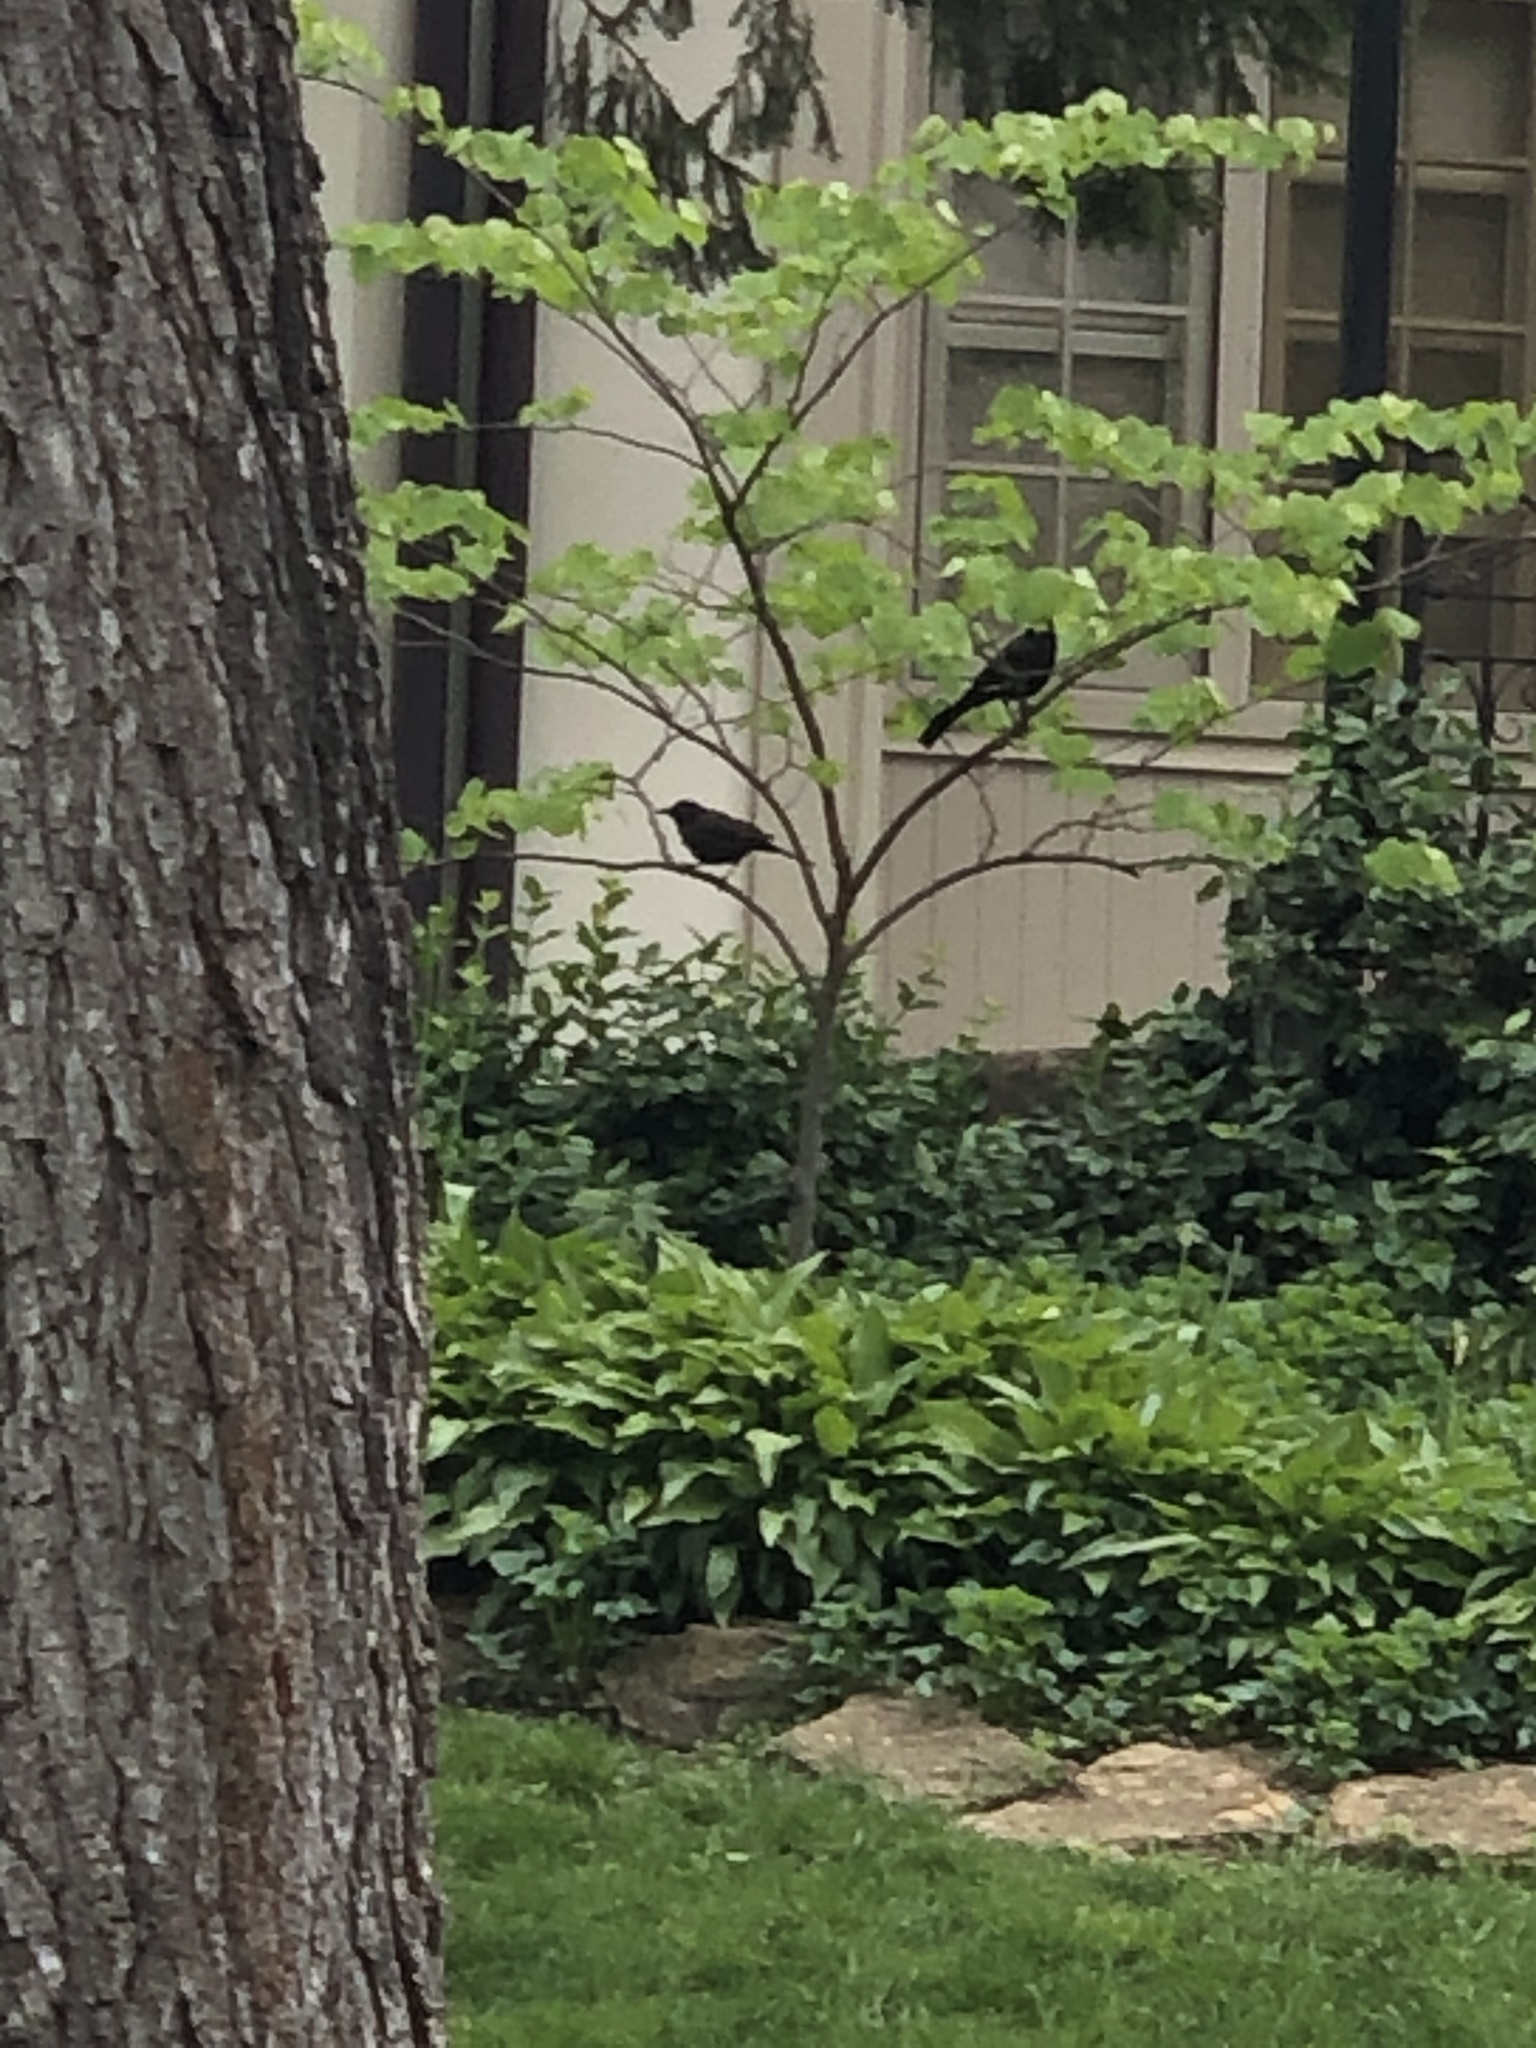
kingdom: Animalia
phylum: Chordata
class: Aves
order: Passeriformes
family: Icteridae
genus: Quiscalus
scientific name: Quiscalus quiscula
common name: Common grackle
